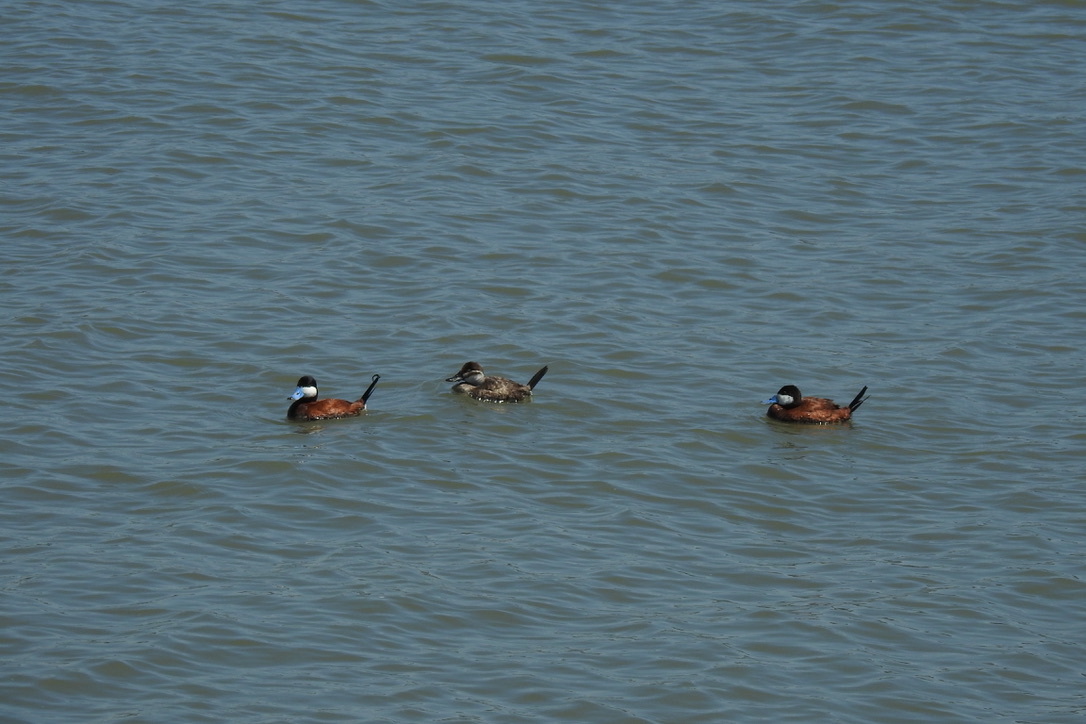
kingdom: Animalia
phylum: Chordata
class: Aves
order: Anseriformes
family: Anatidae
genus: Oxyura
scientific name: Oxyura jamaicensis
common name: Ruddy duck
